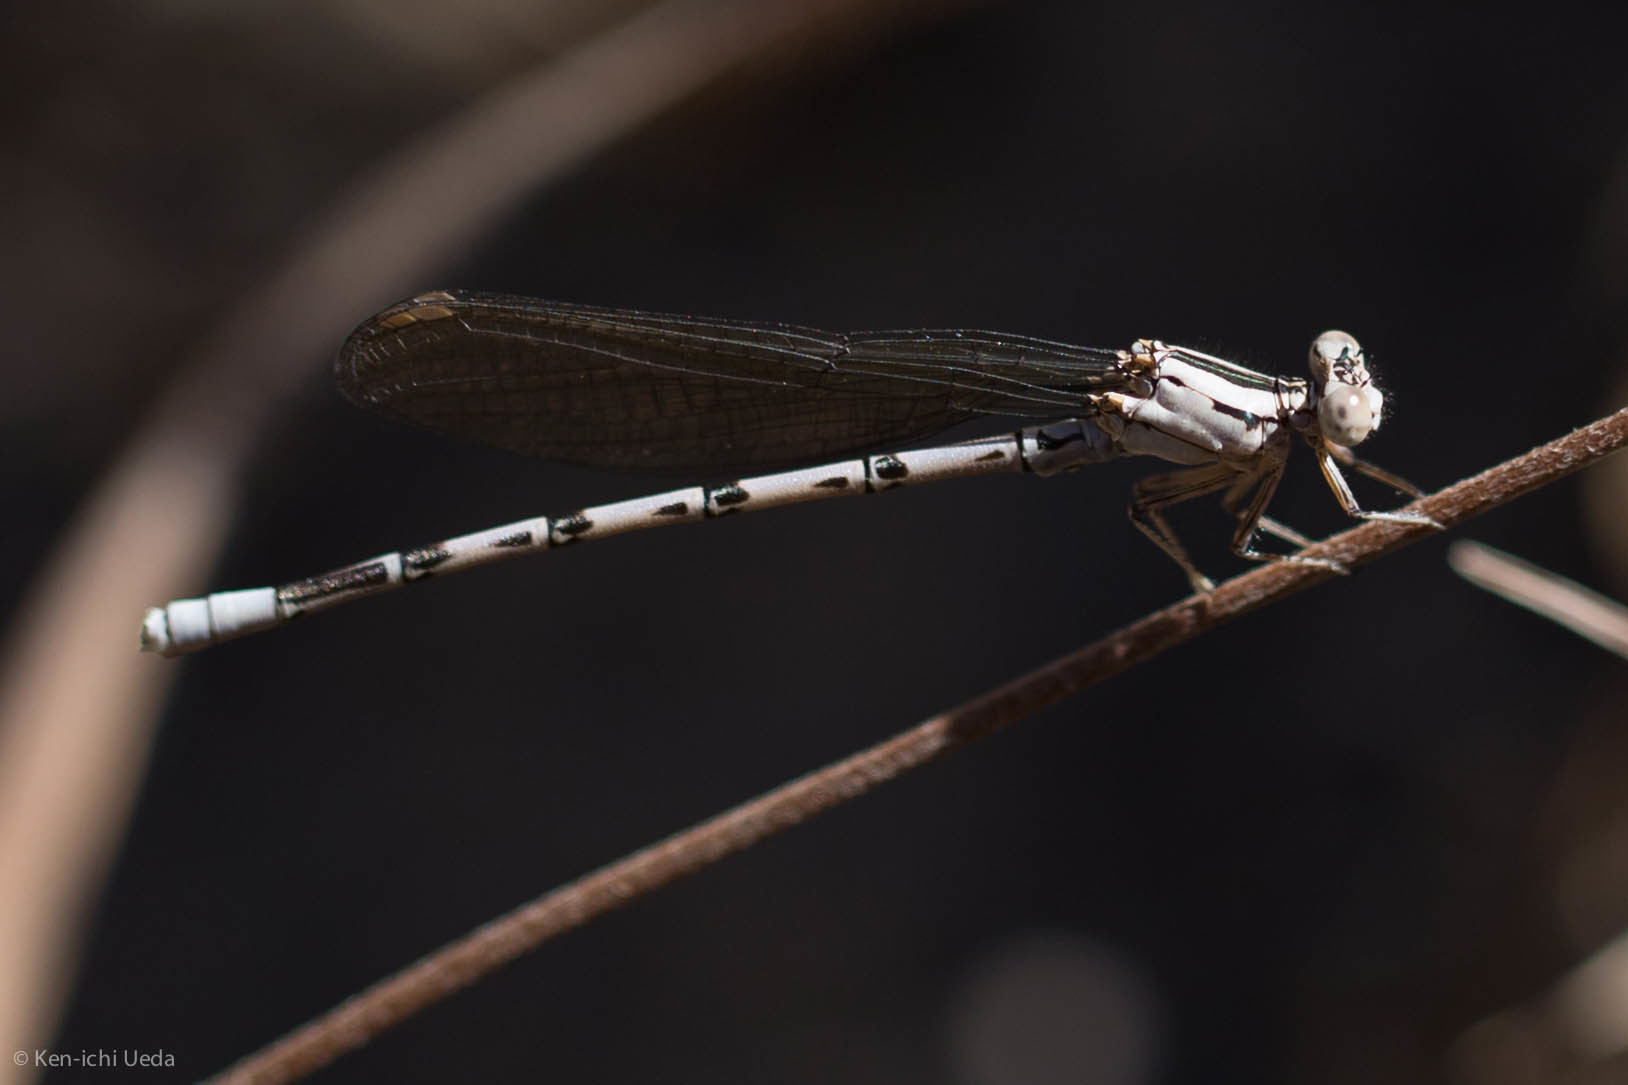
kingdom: Animalia
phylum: Arthropoda
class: Insecta
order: Odonata
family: Coenagrionidae
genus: Argia
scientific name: Argia vivida
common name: Vivid dancer
